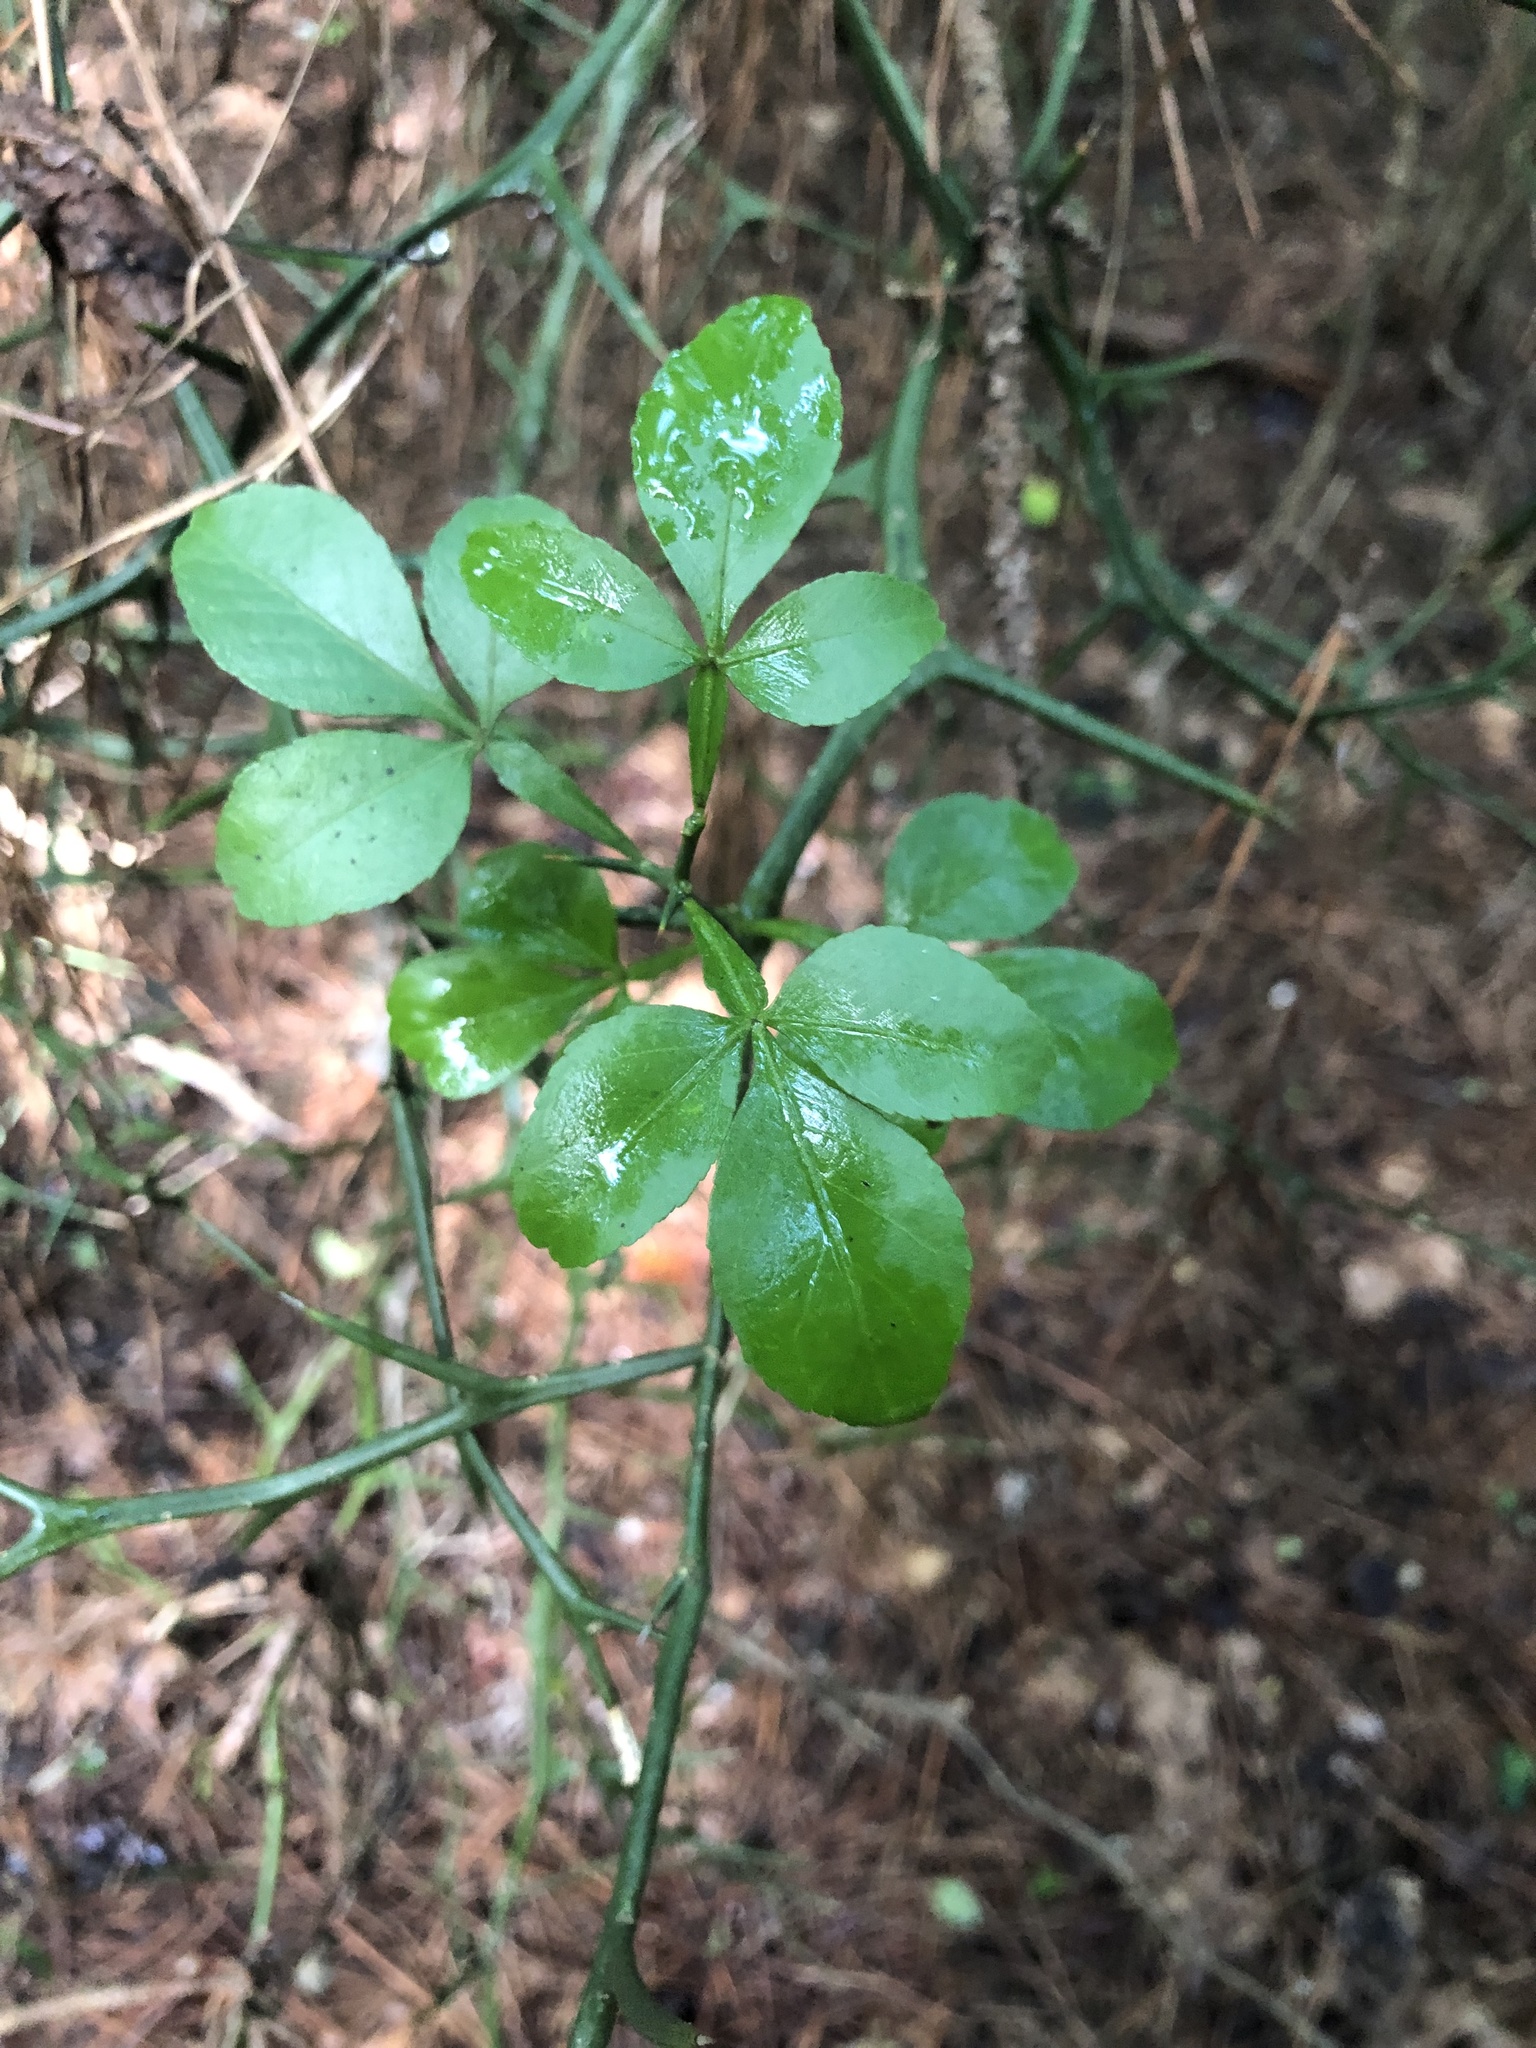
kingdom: Plantae
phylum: Tracheophyta
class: Magnoliopsida
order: Sapindales
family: Rutaceae
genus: Citrus
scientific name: Citrus trifoliata
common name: Japanese bitter-orange
